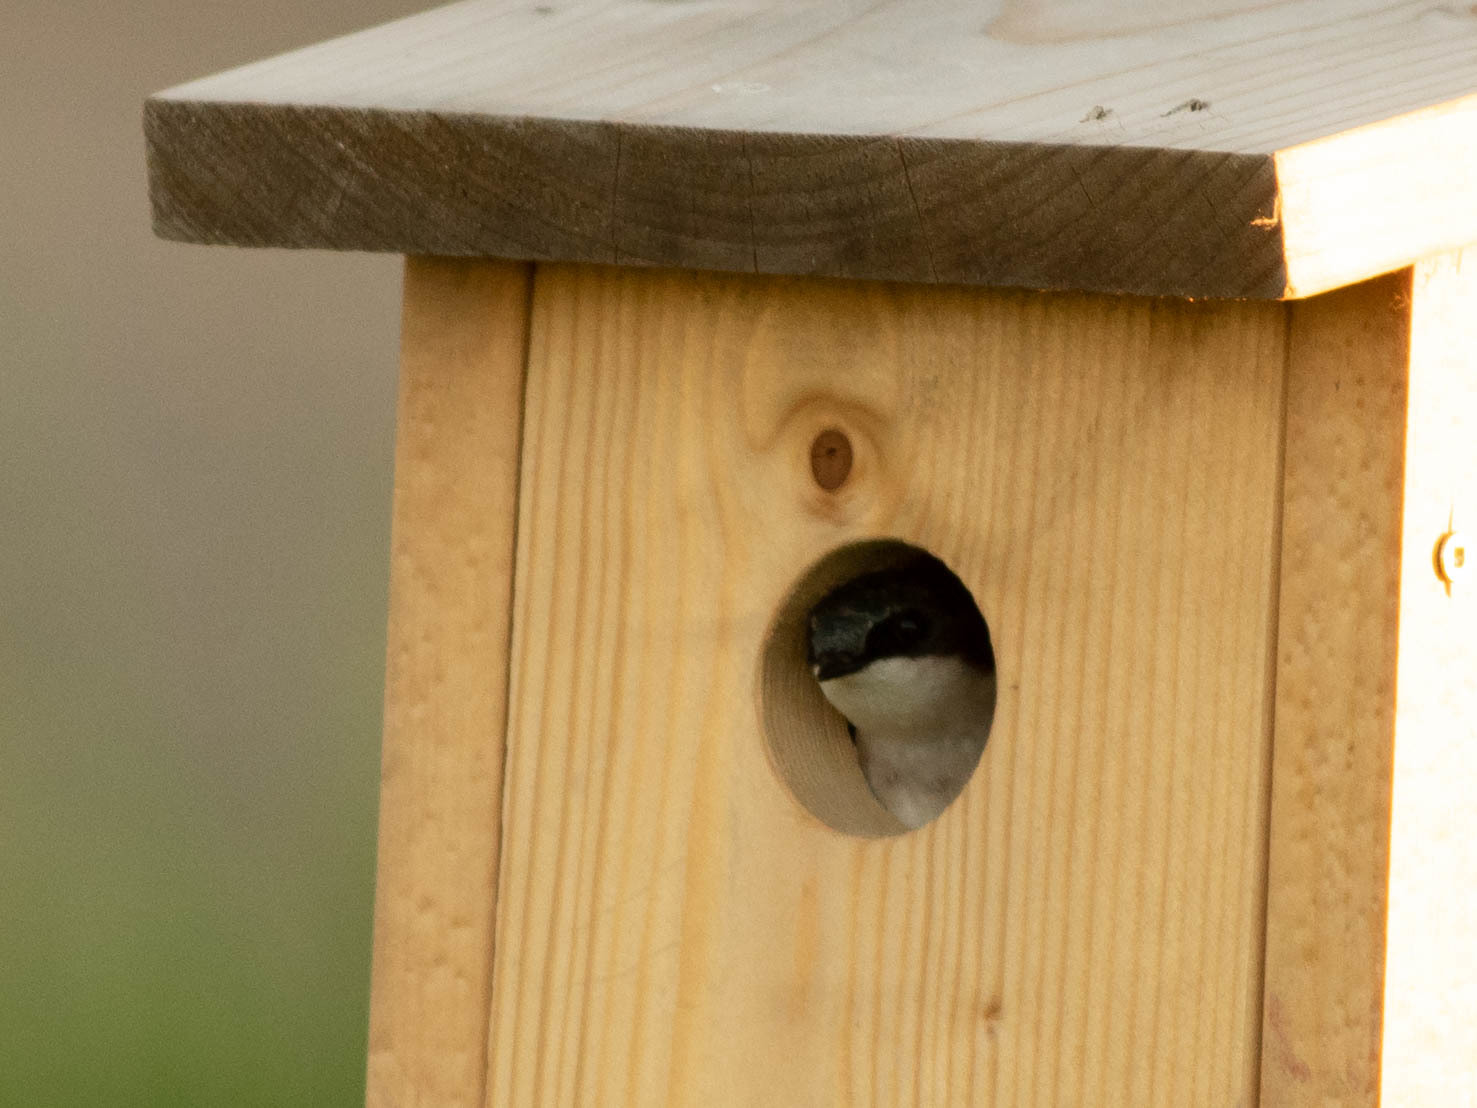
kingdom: Animalia
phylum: Chordata
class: Aves
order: Passeriformes
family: Hirundinidae
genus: Tachycineta
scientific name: Tachycineta bicolor
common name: Tree swallow
